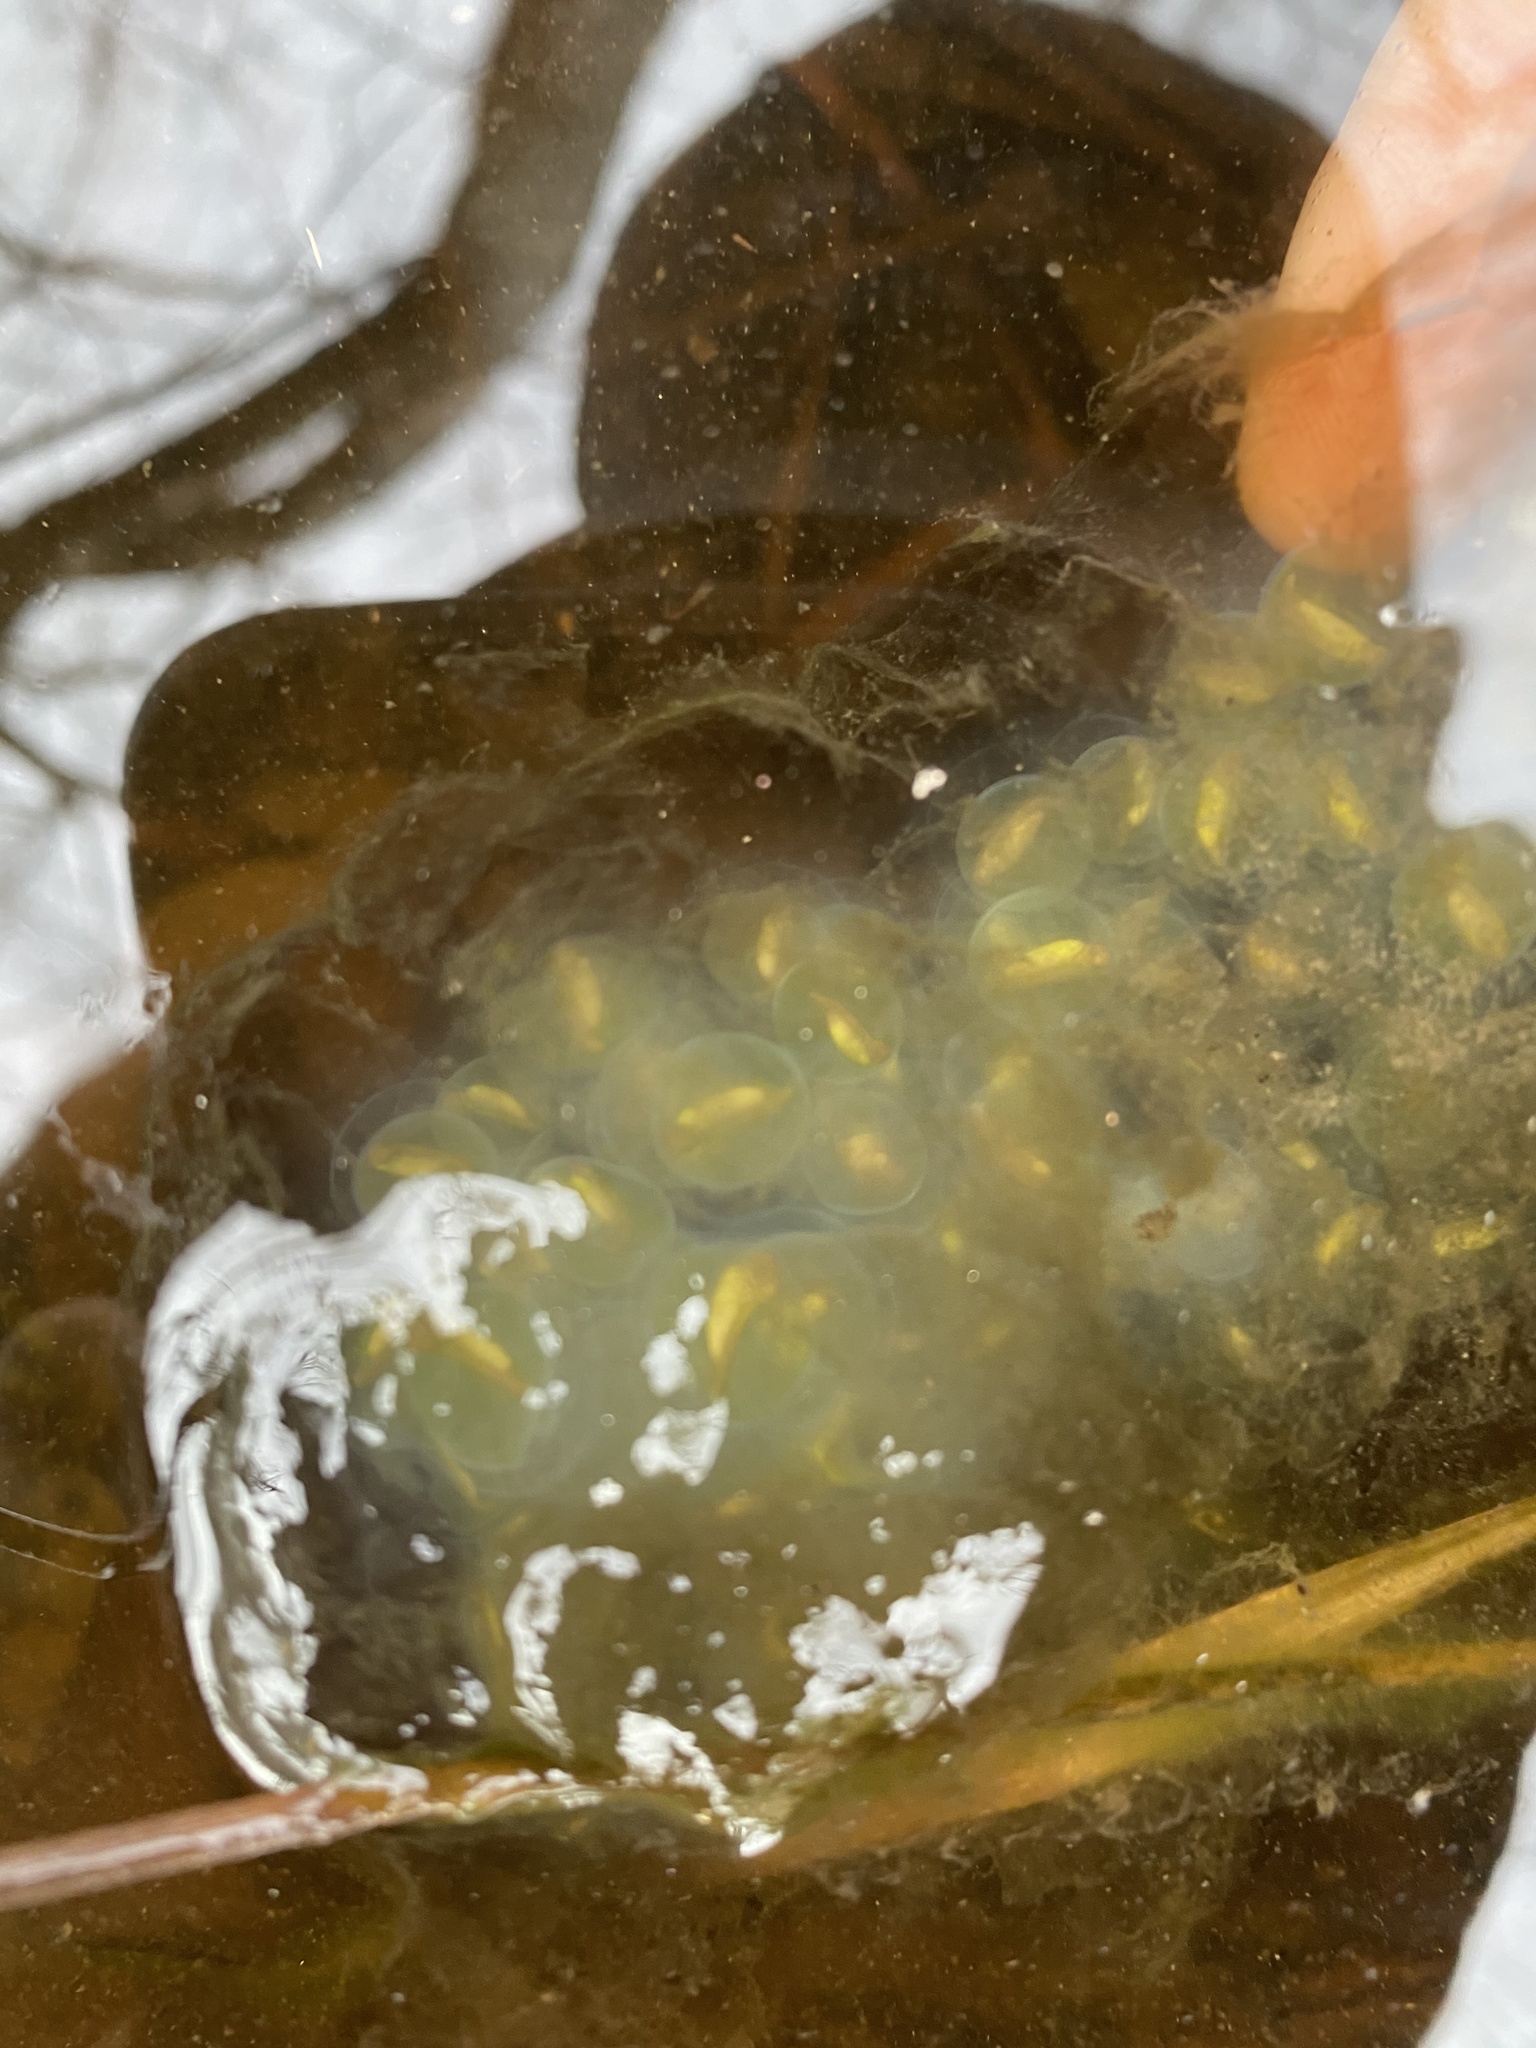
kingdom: Animalia
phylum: Chordata
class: Amphibia
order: Caudata
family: Ambystomatidae
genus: Ambystoma
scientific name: Ambystoma maculatum
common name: Spotted salamander
